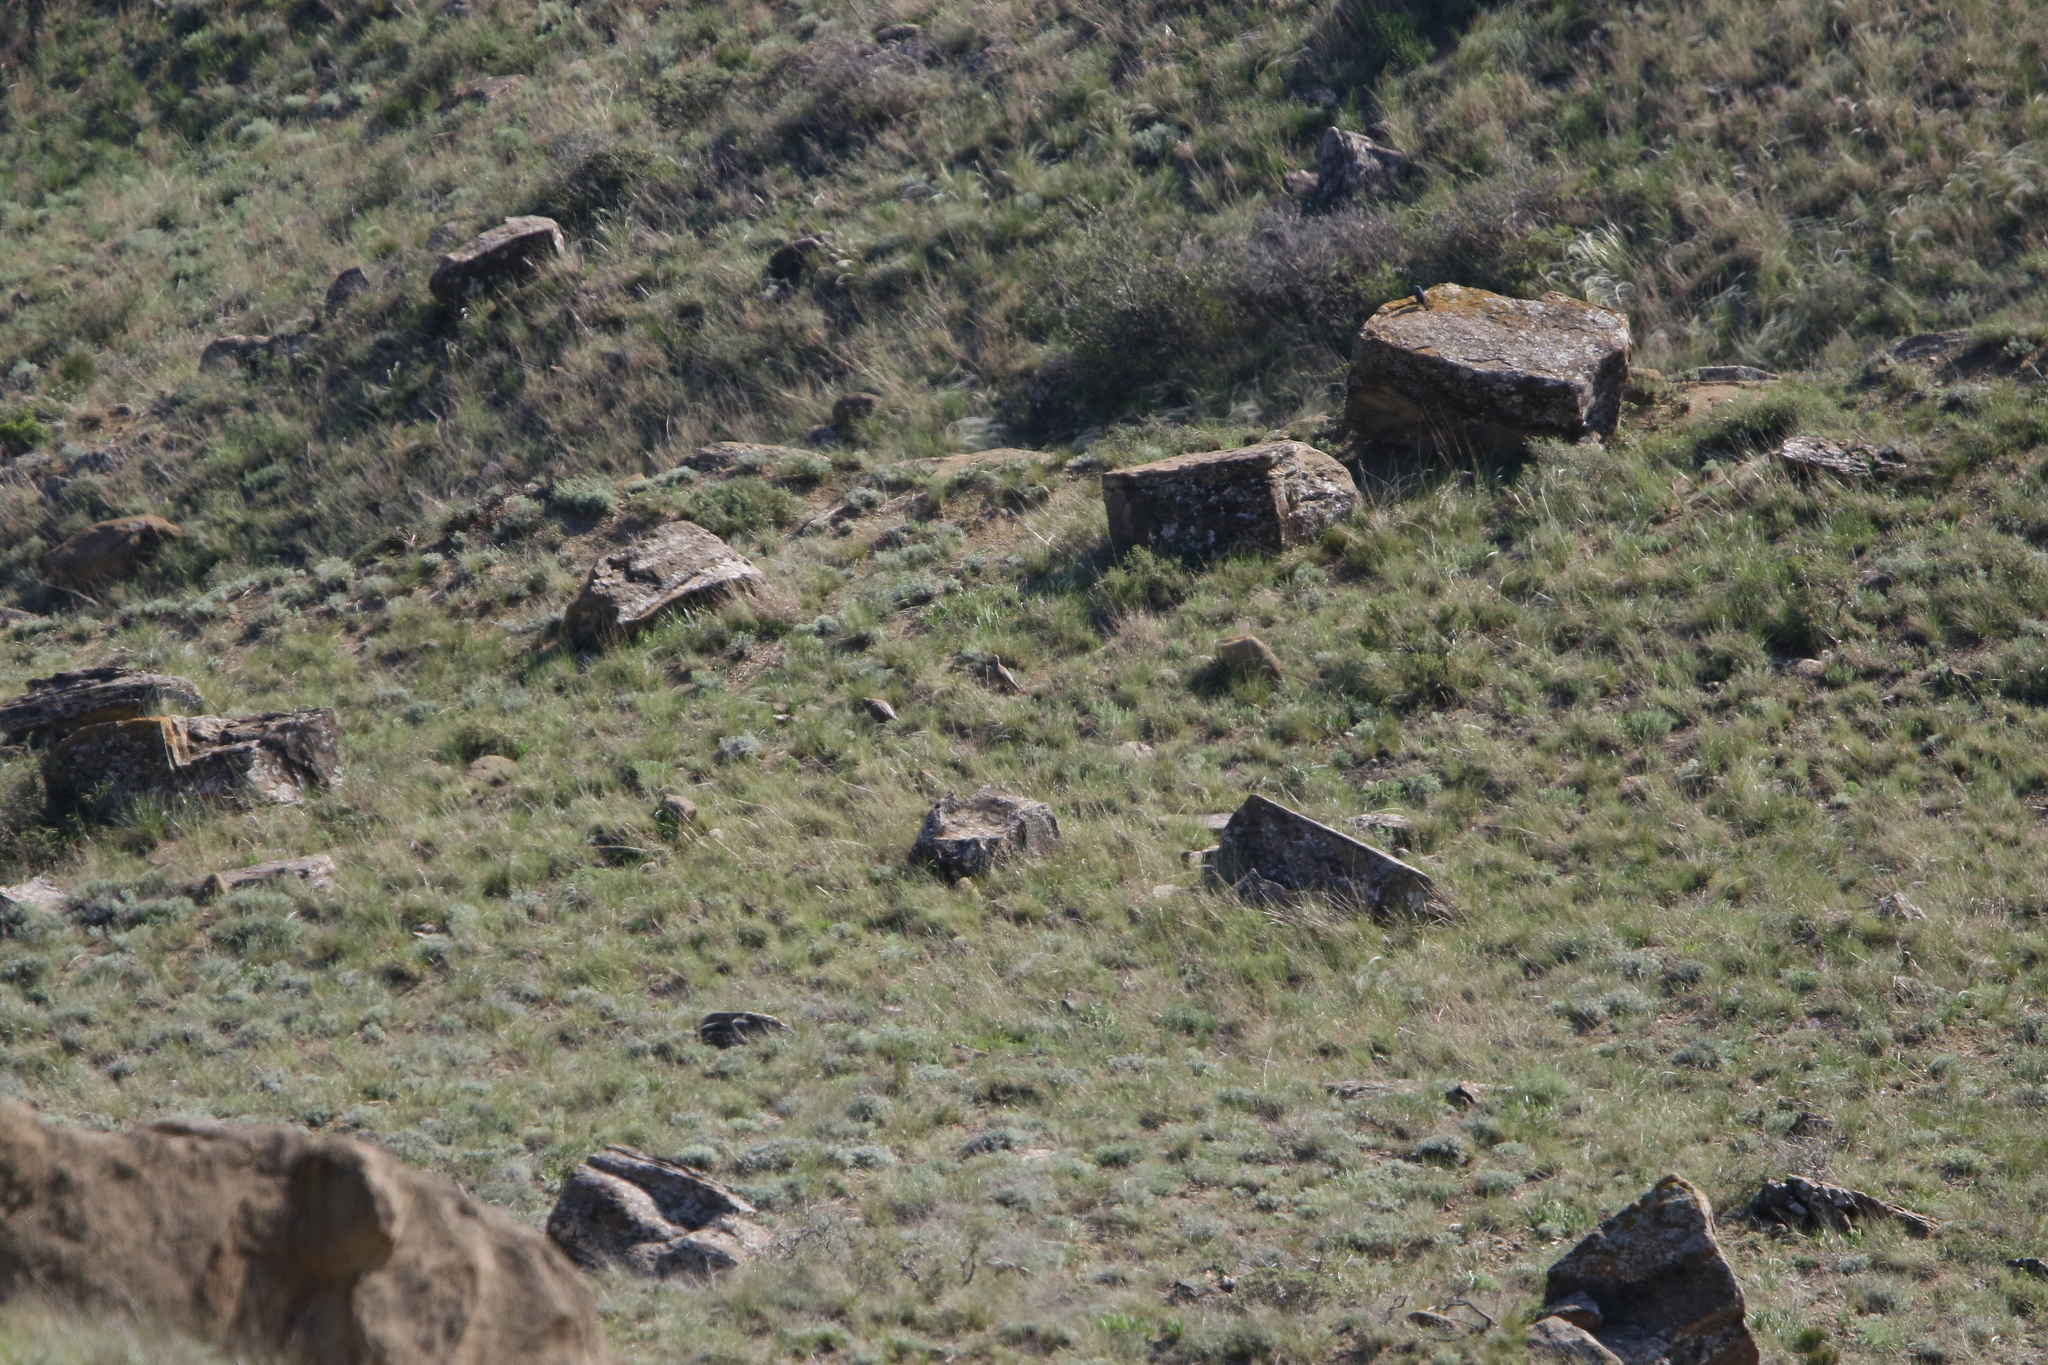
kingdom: Animalia
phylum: Chordata
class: Aves
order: Galliformes
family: Phasianidae
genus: Alectoris
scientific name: Alectoris chukar
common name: Chukar
